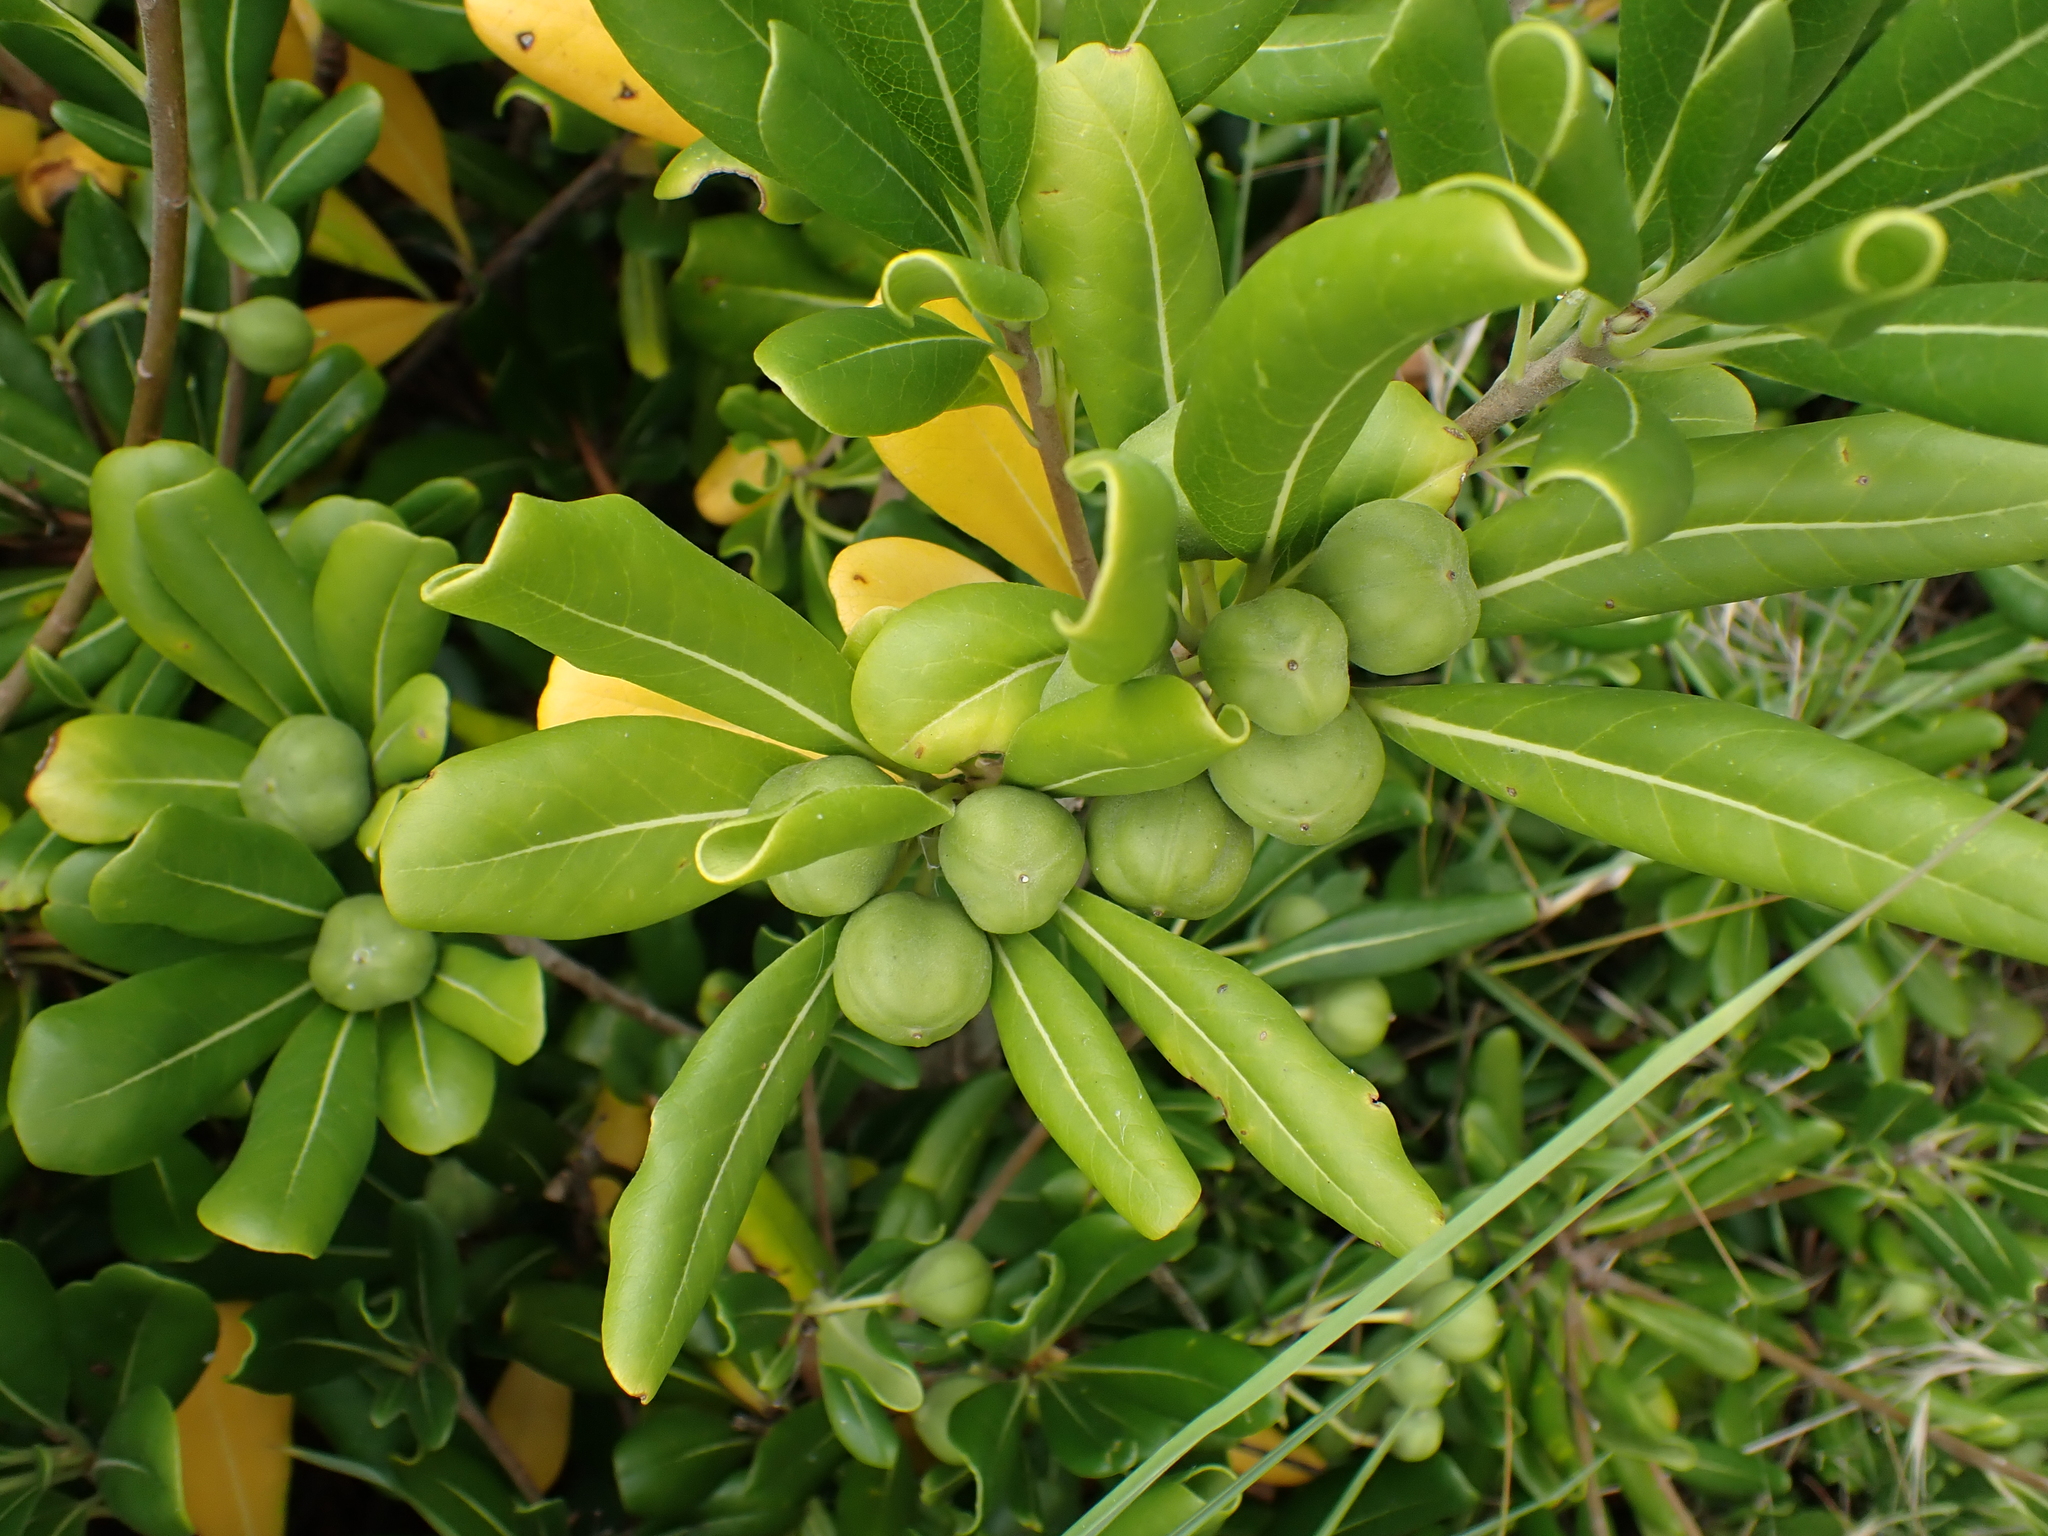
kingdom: Plantae
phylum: Tracheophyta
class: Magnoliopsida
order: Apiales
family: Pittosporaceae
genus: Pittosporum
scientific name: Pittosporum tobira
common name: Japanese cheesewood
